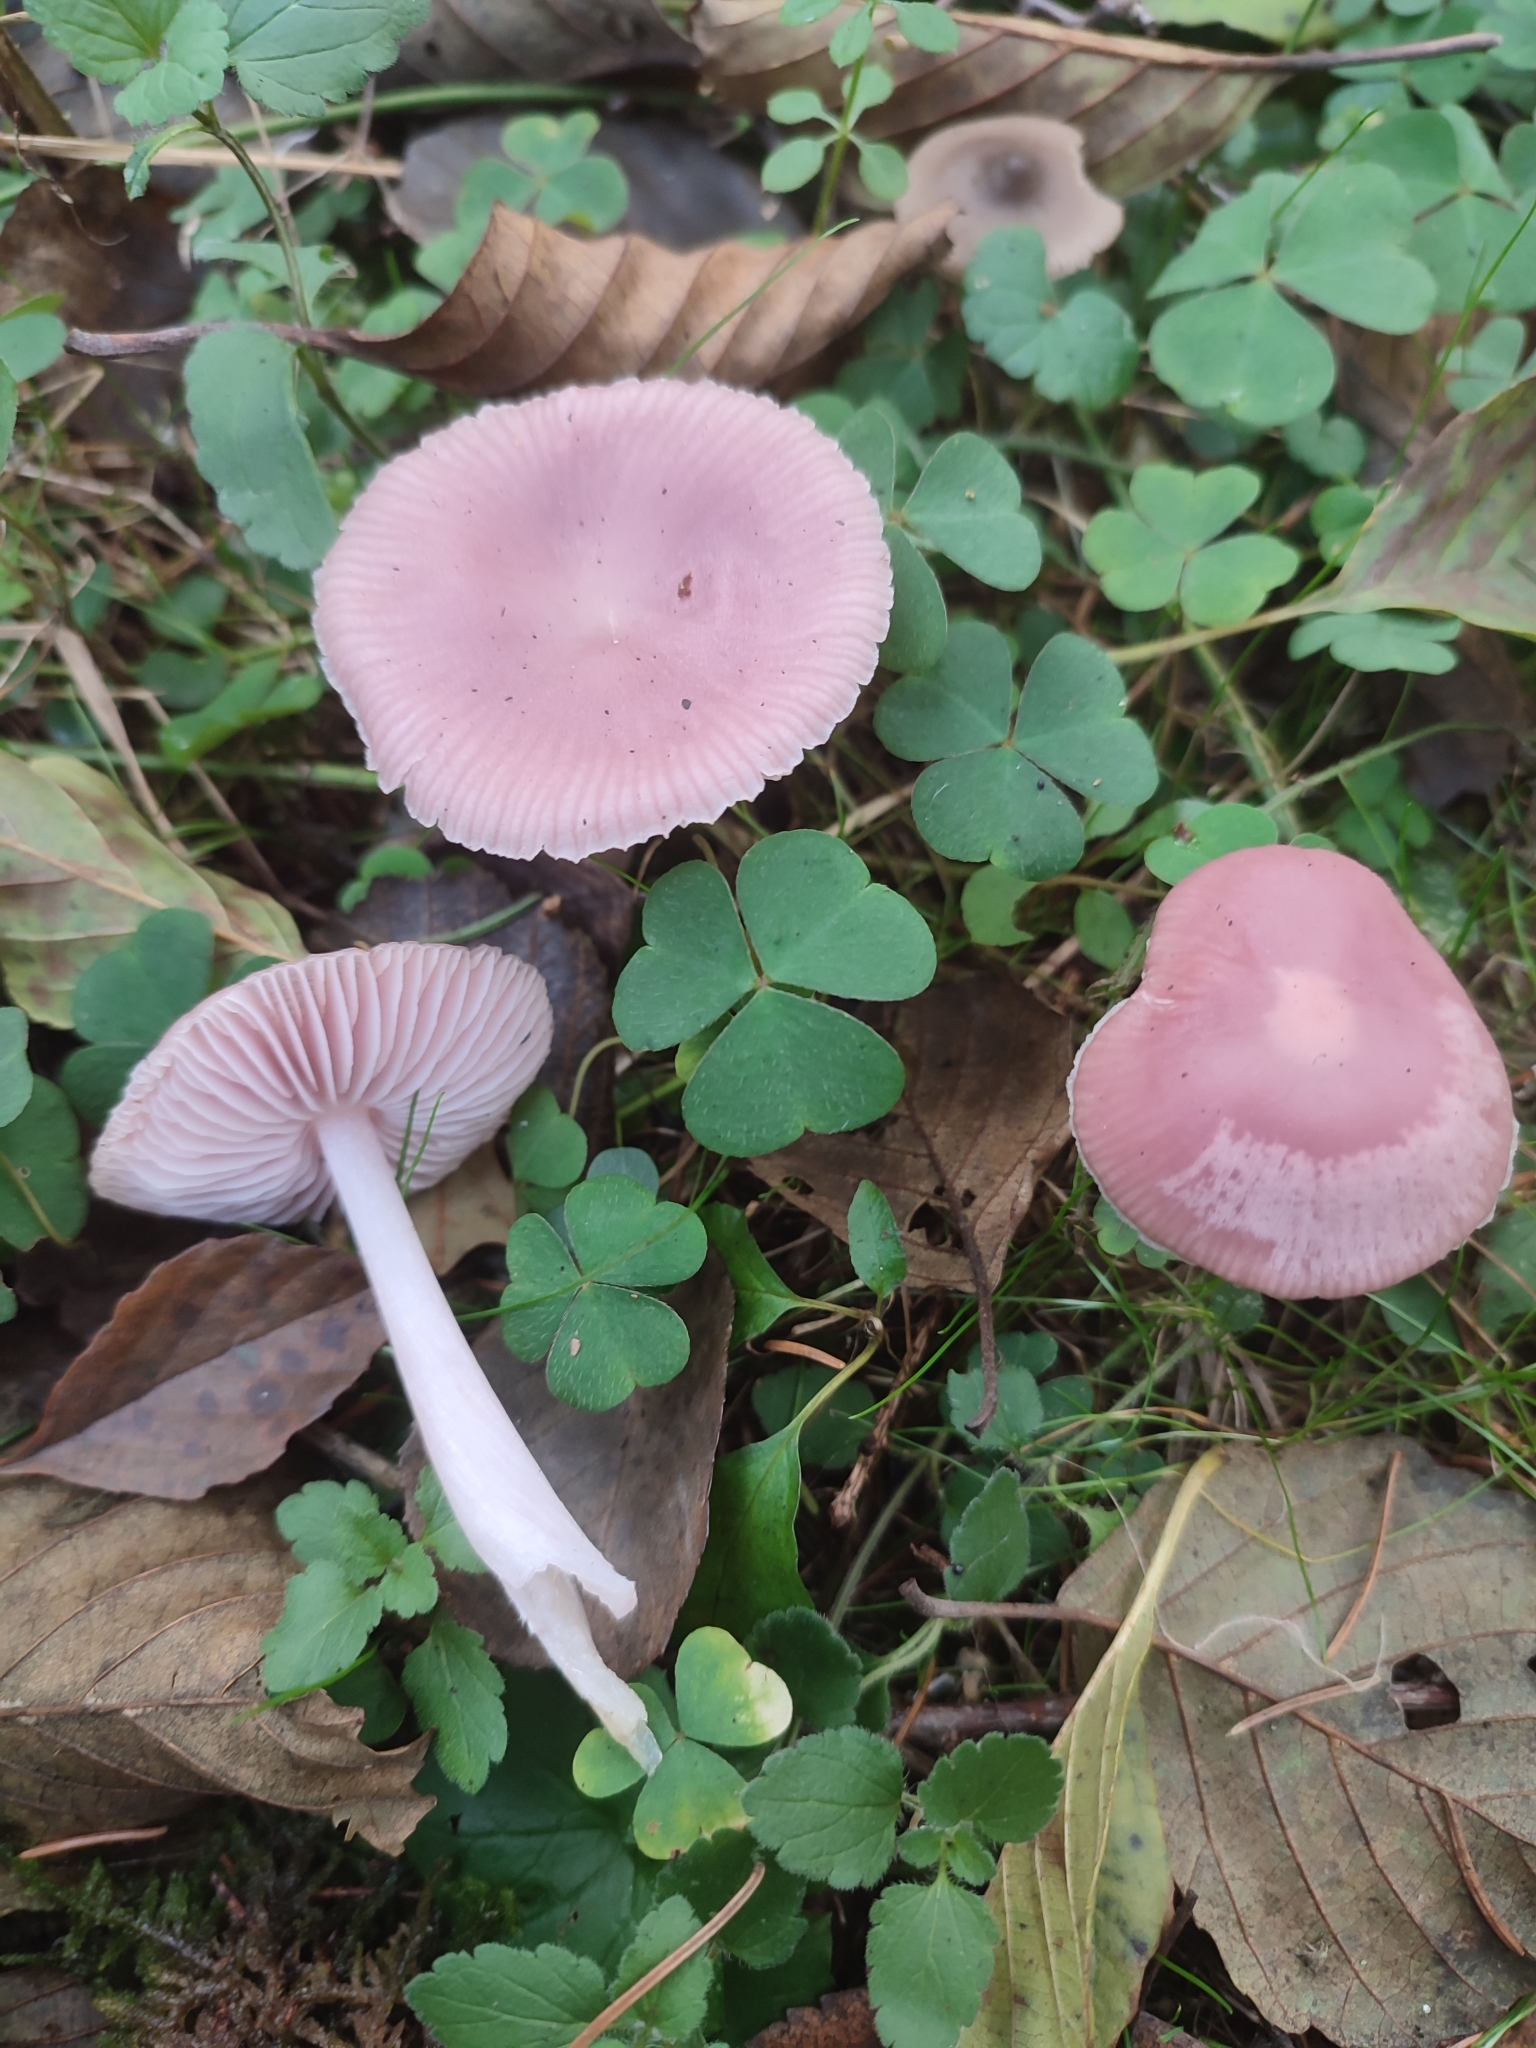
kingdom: Fungi
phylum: Basidiomycota
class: Agaricomycetes
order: Agaricales
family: Mycenaceae
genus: Mycena
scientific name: Mycena rosea
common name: Rosy bonnet
